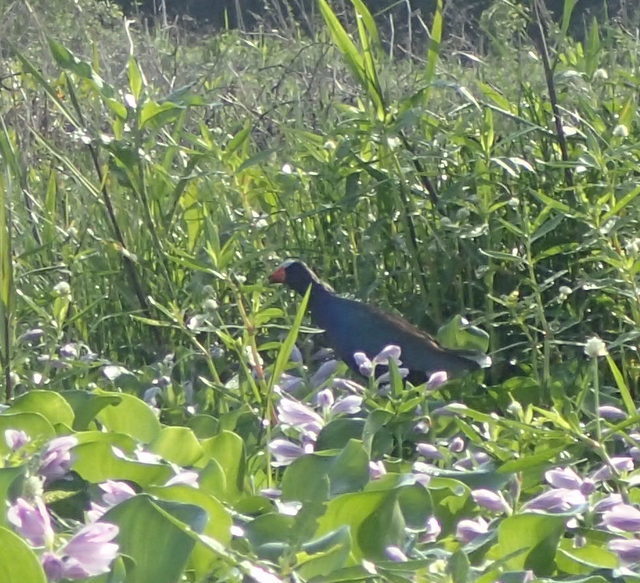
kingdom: Animalia
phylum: Chordata
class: Aves
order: Gruiformes
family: Rallidae
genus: Porphyrio
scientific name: Porphyrio martinica
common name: Purple gallinule
